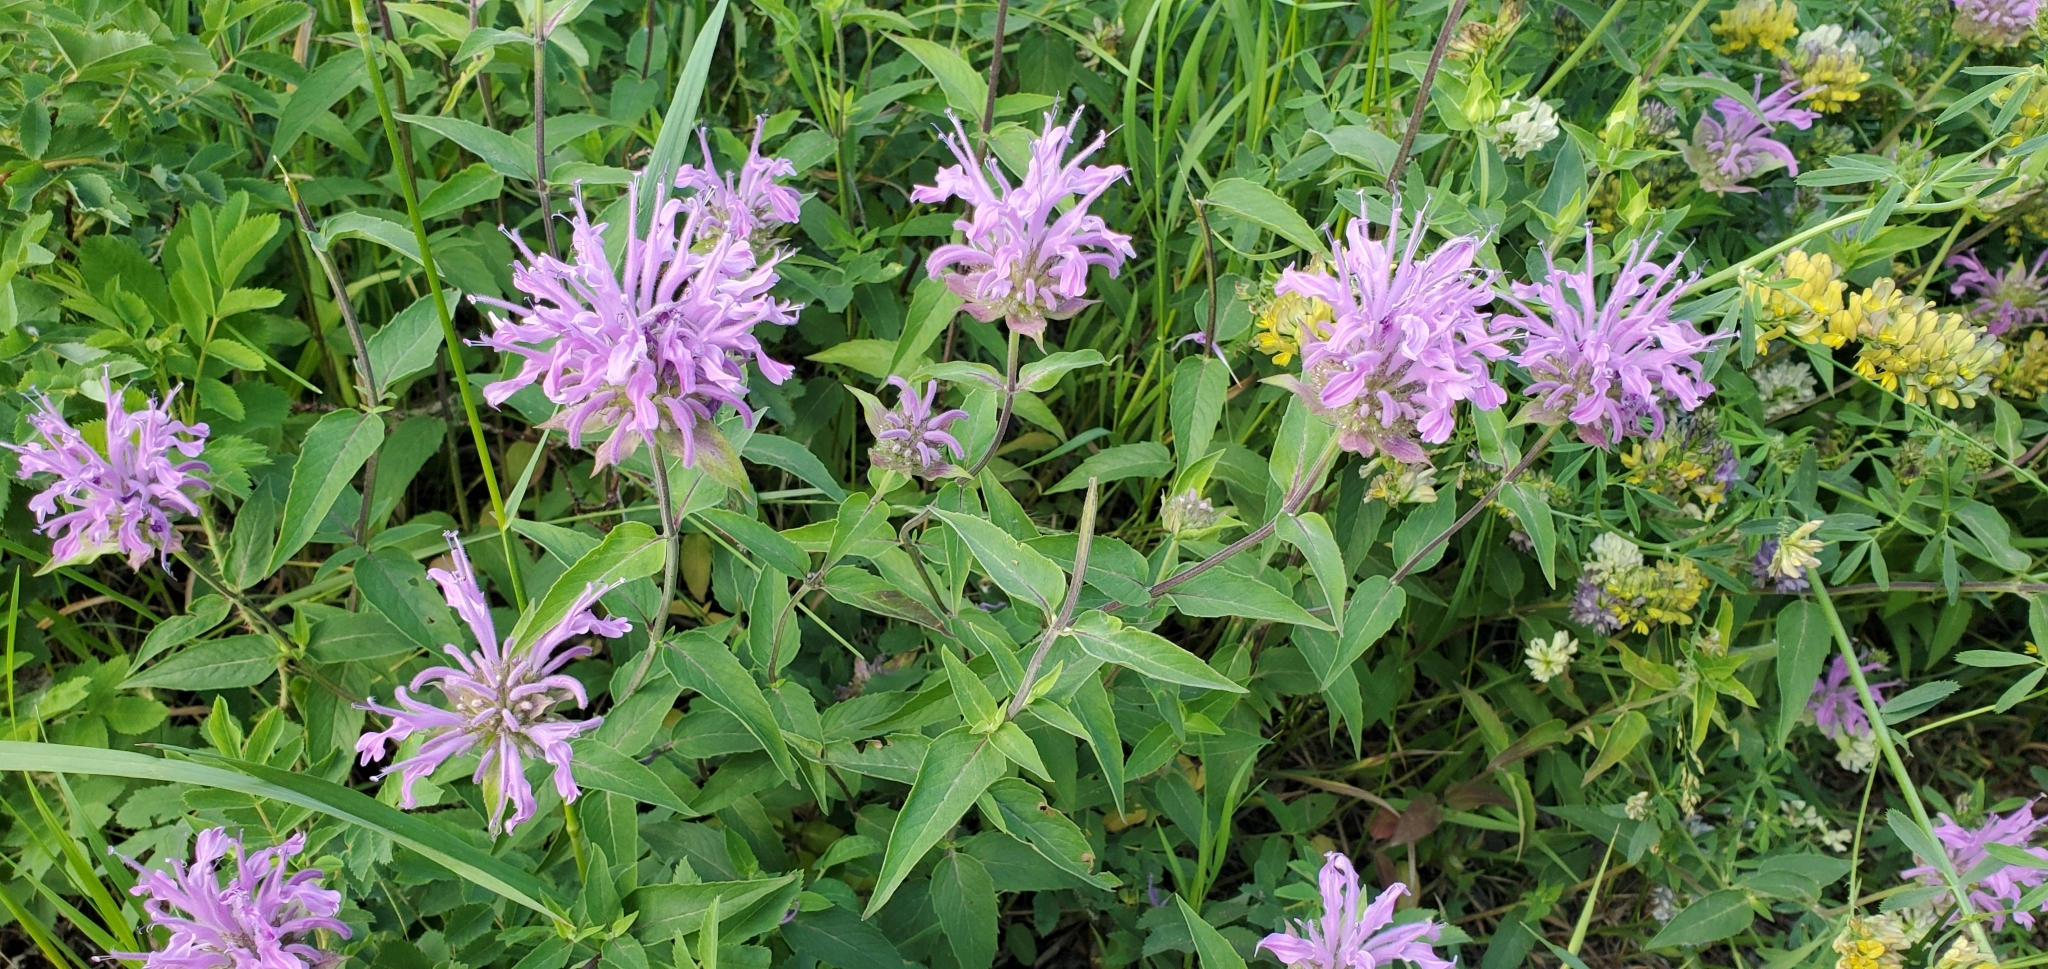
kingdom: Plantae
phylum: Tracheophyta
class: Magnoliopsida
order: Lamiales
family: Lamiaceae
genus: Monarda
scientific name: Monarda fistulosa
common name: Purple beebalm
